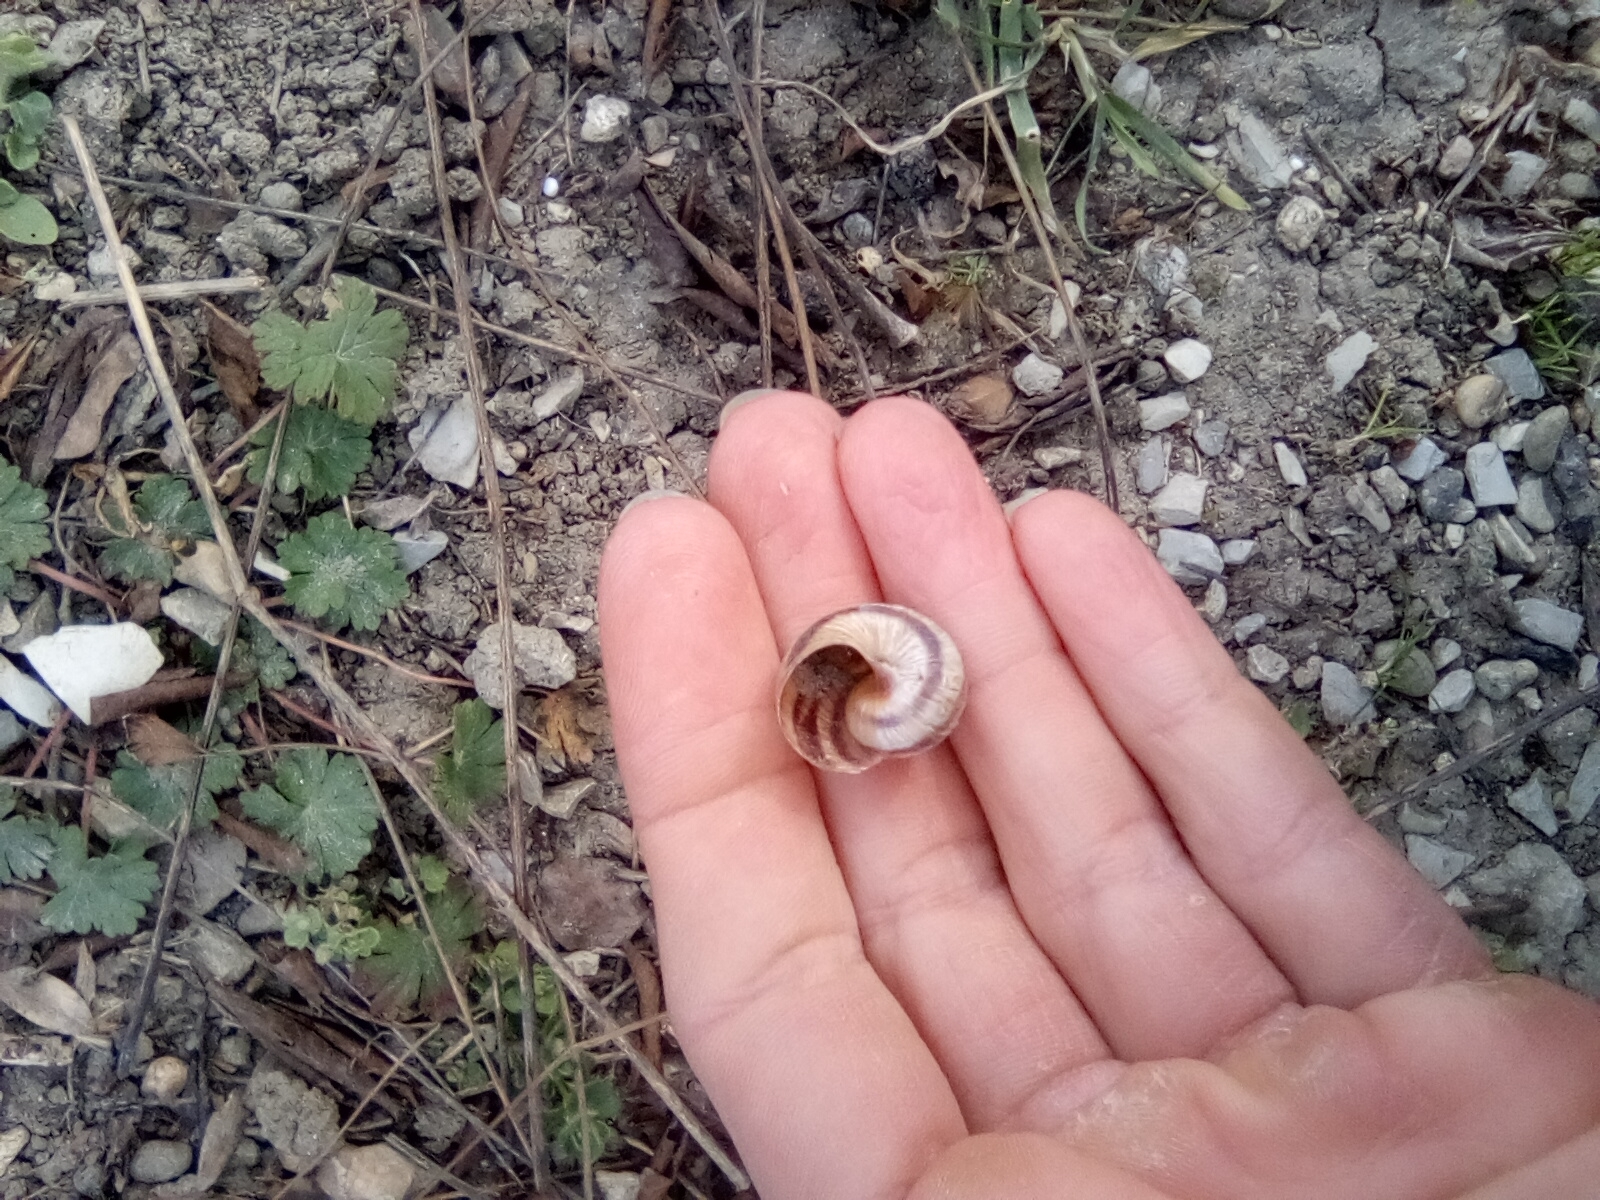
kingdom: Animalia
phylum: Mollusca
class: Gastropoda
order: Stylommatophora
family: Helicidae
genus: Helix
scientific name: Helix albescens
